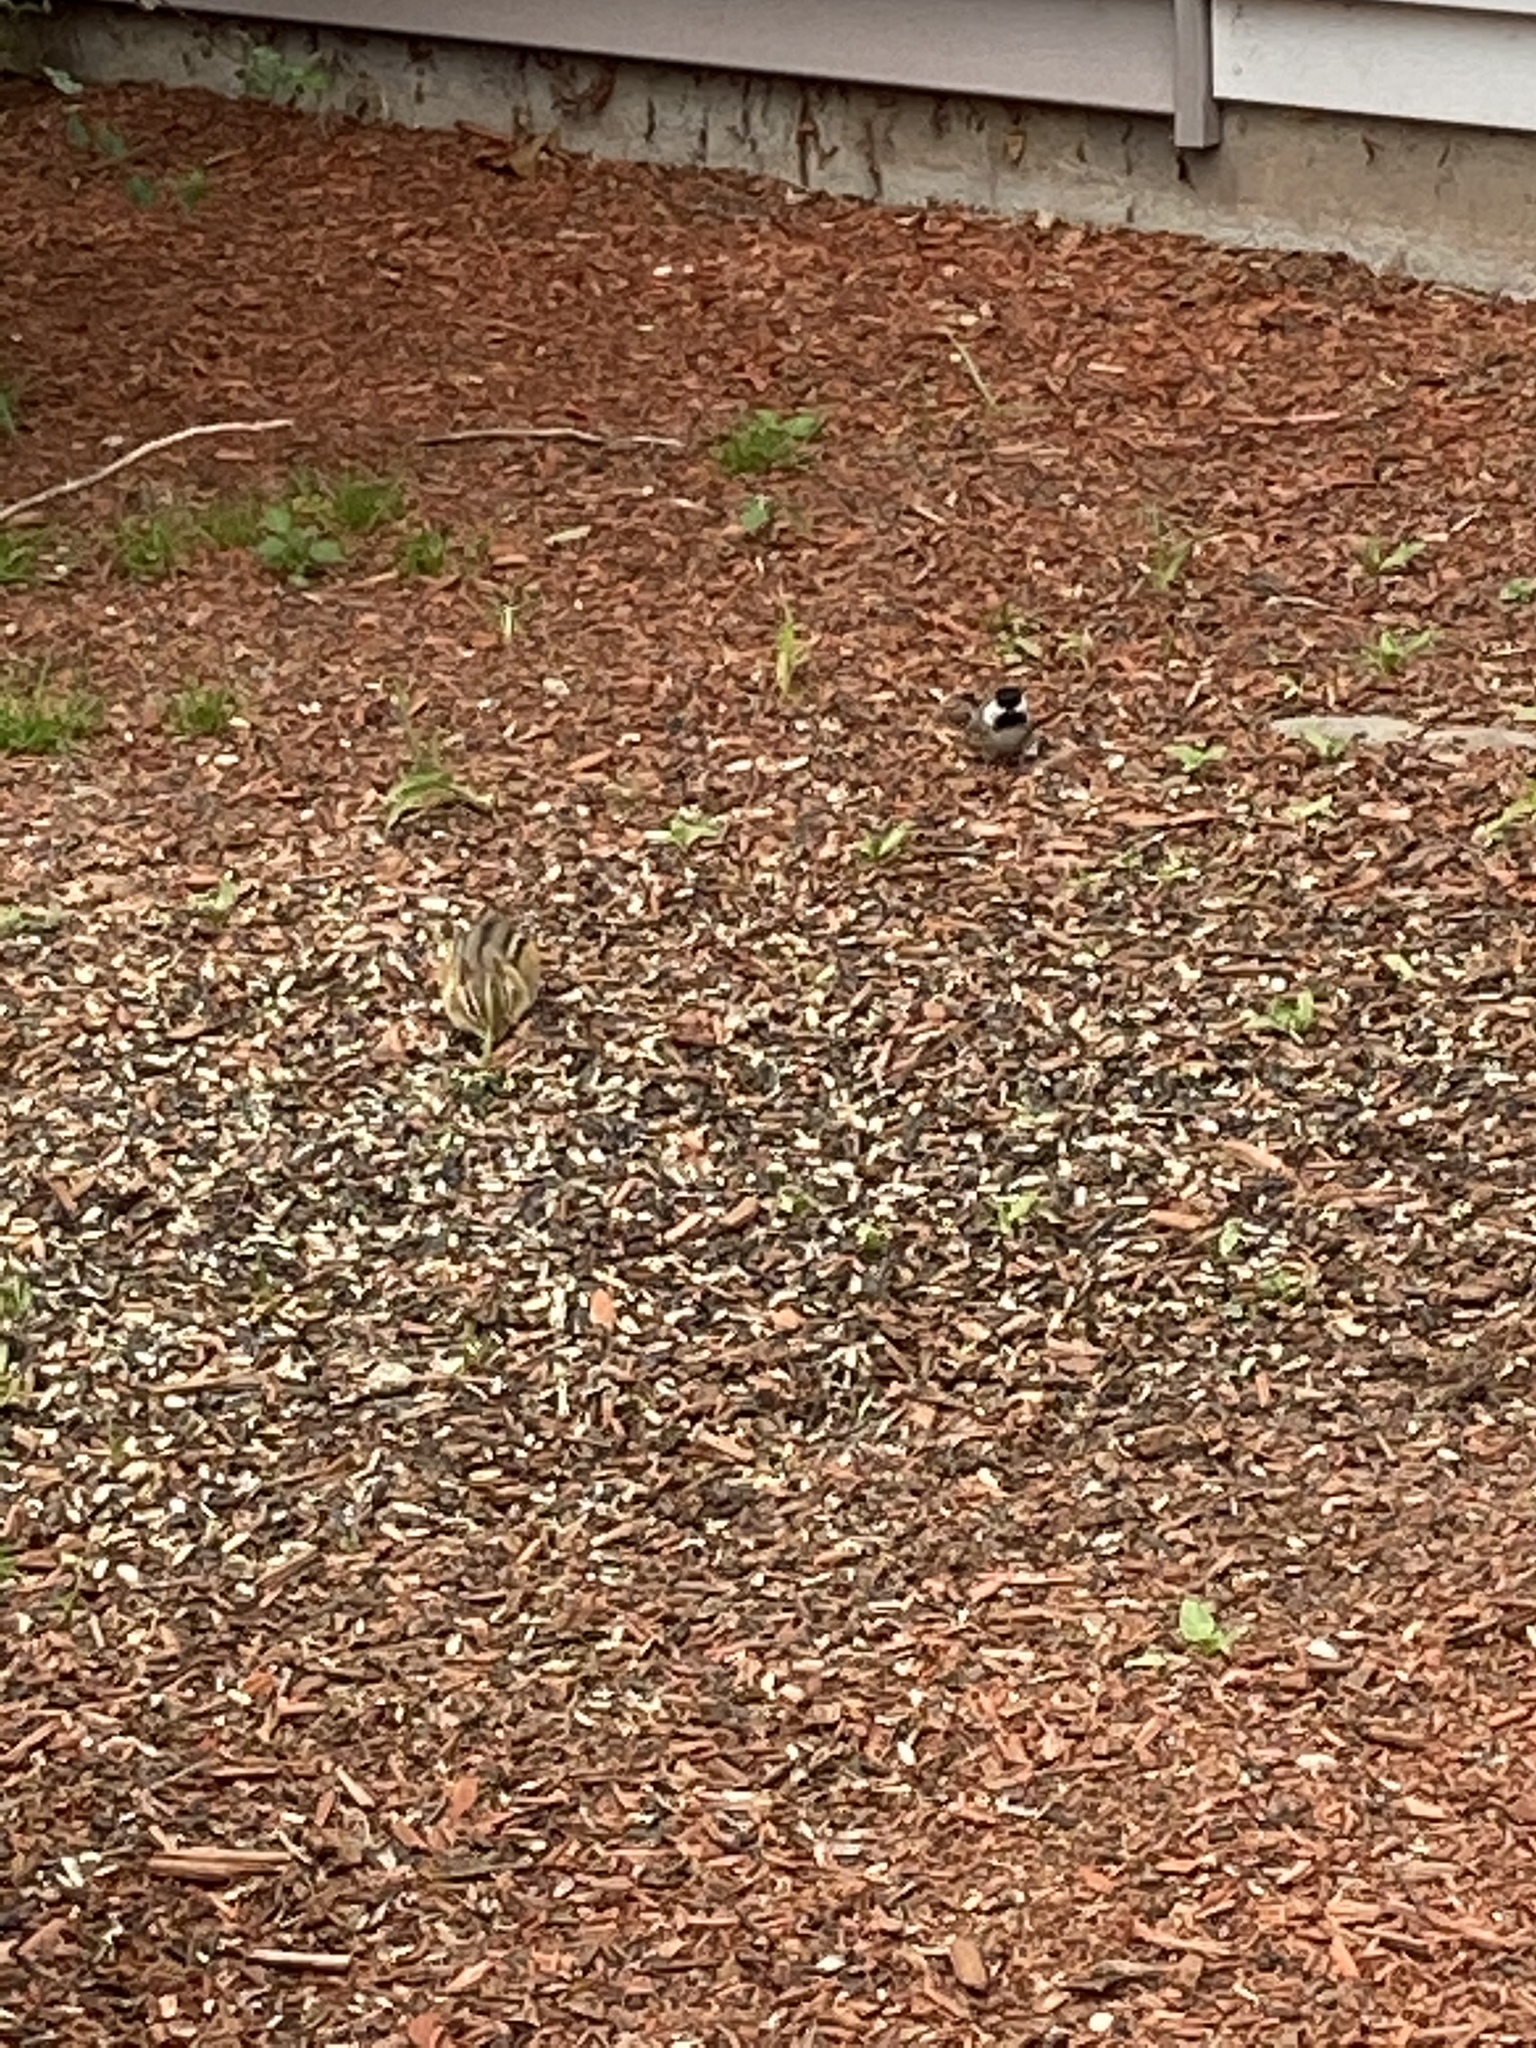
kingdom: Animalia
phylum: Chordata
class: Aves
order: Passeriformes
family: Paridae
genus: Poecile
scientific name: Poecile atricapillus
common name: Black-capped chickadee
